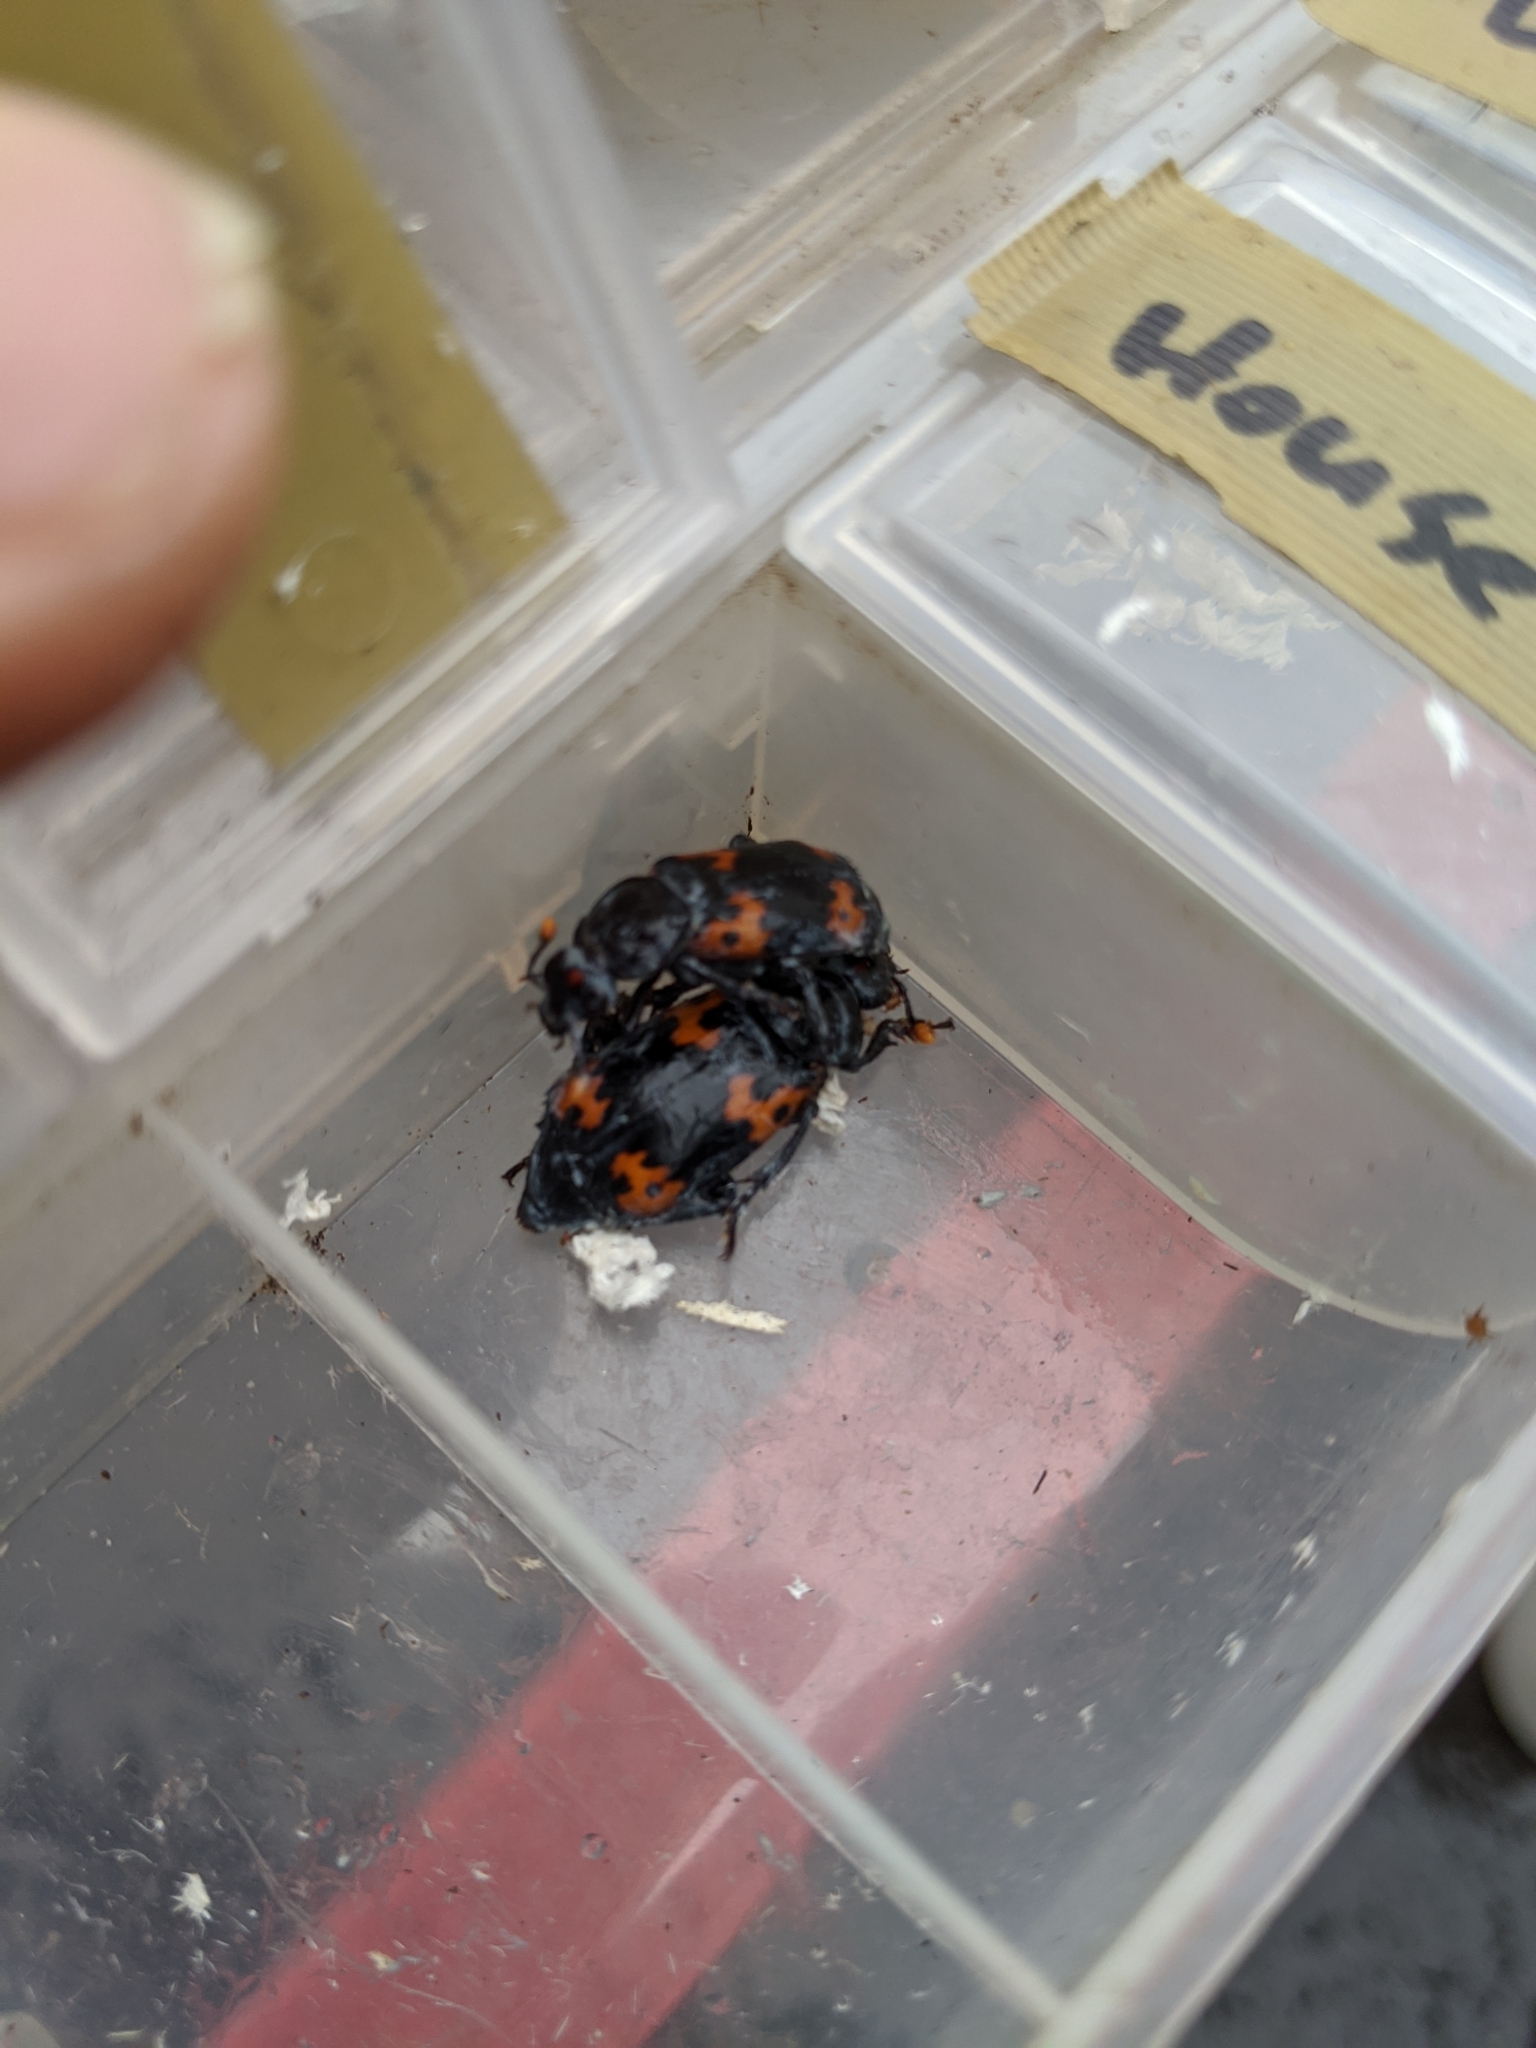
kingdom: Animalia
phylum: Arthropoda
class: Insecta
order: Coleoptera
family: Staphylinidae
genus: Nicrophorus
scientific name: Nicrophorus nepalensis
